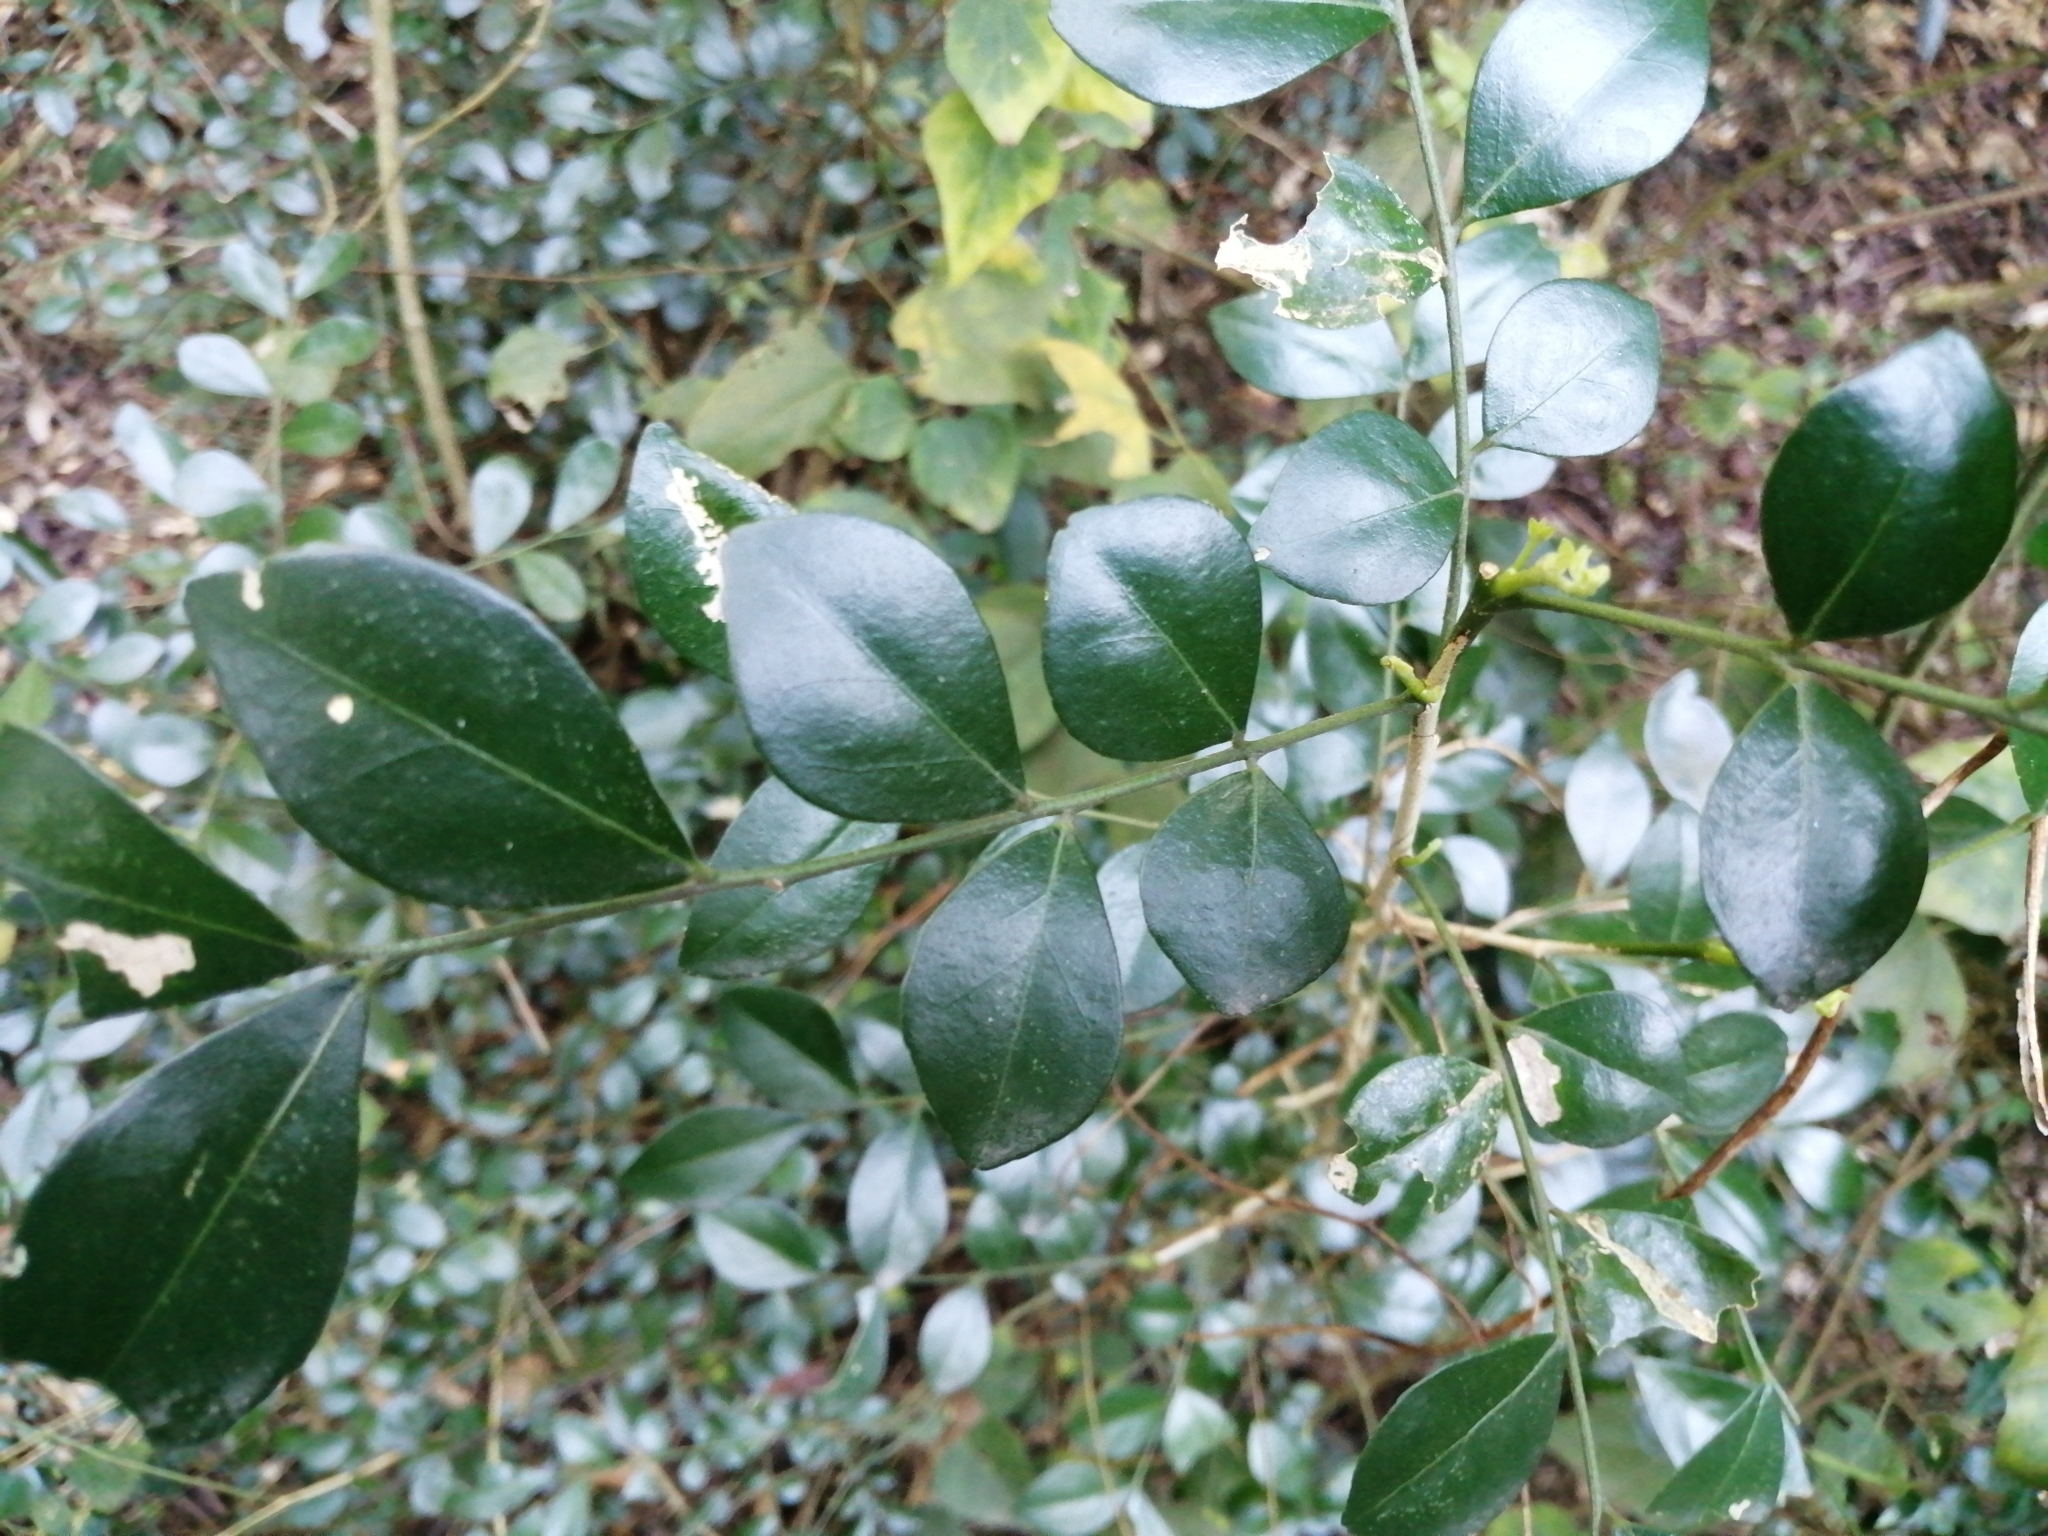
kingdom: Plantae
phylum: Tracheophyta
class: Magnoliopsida
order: Sapindales
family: Rutaceae
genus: Murraya
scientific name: Murraya paniculata
